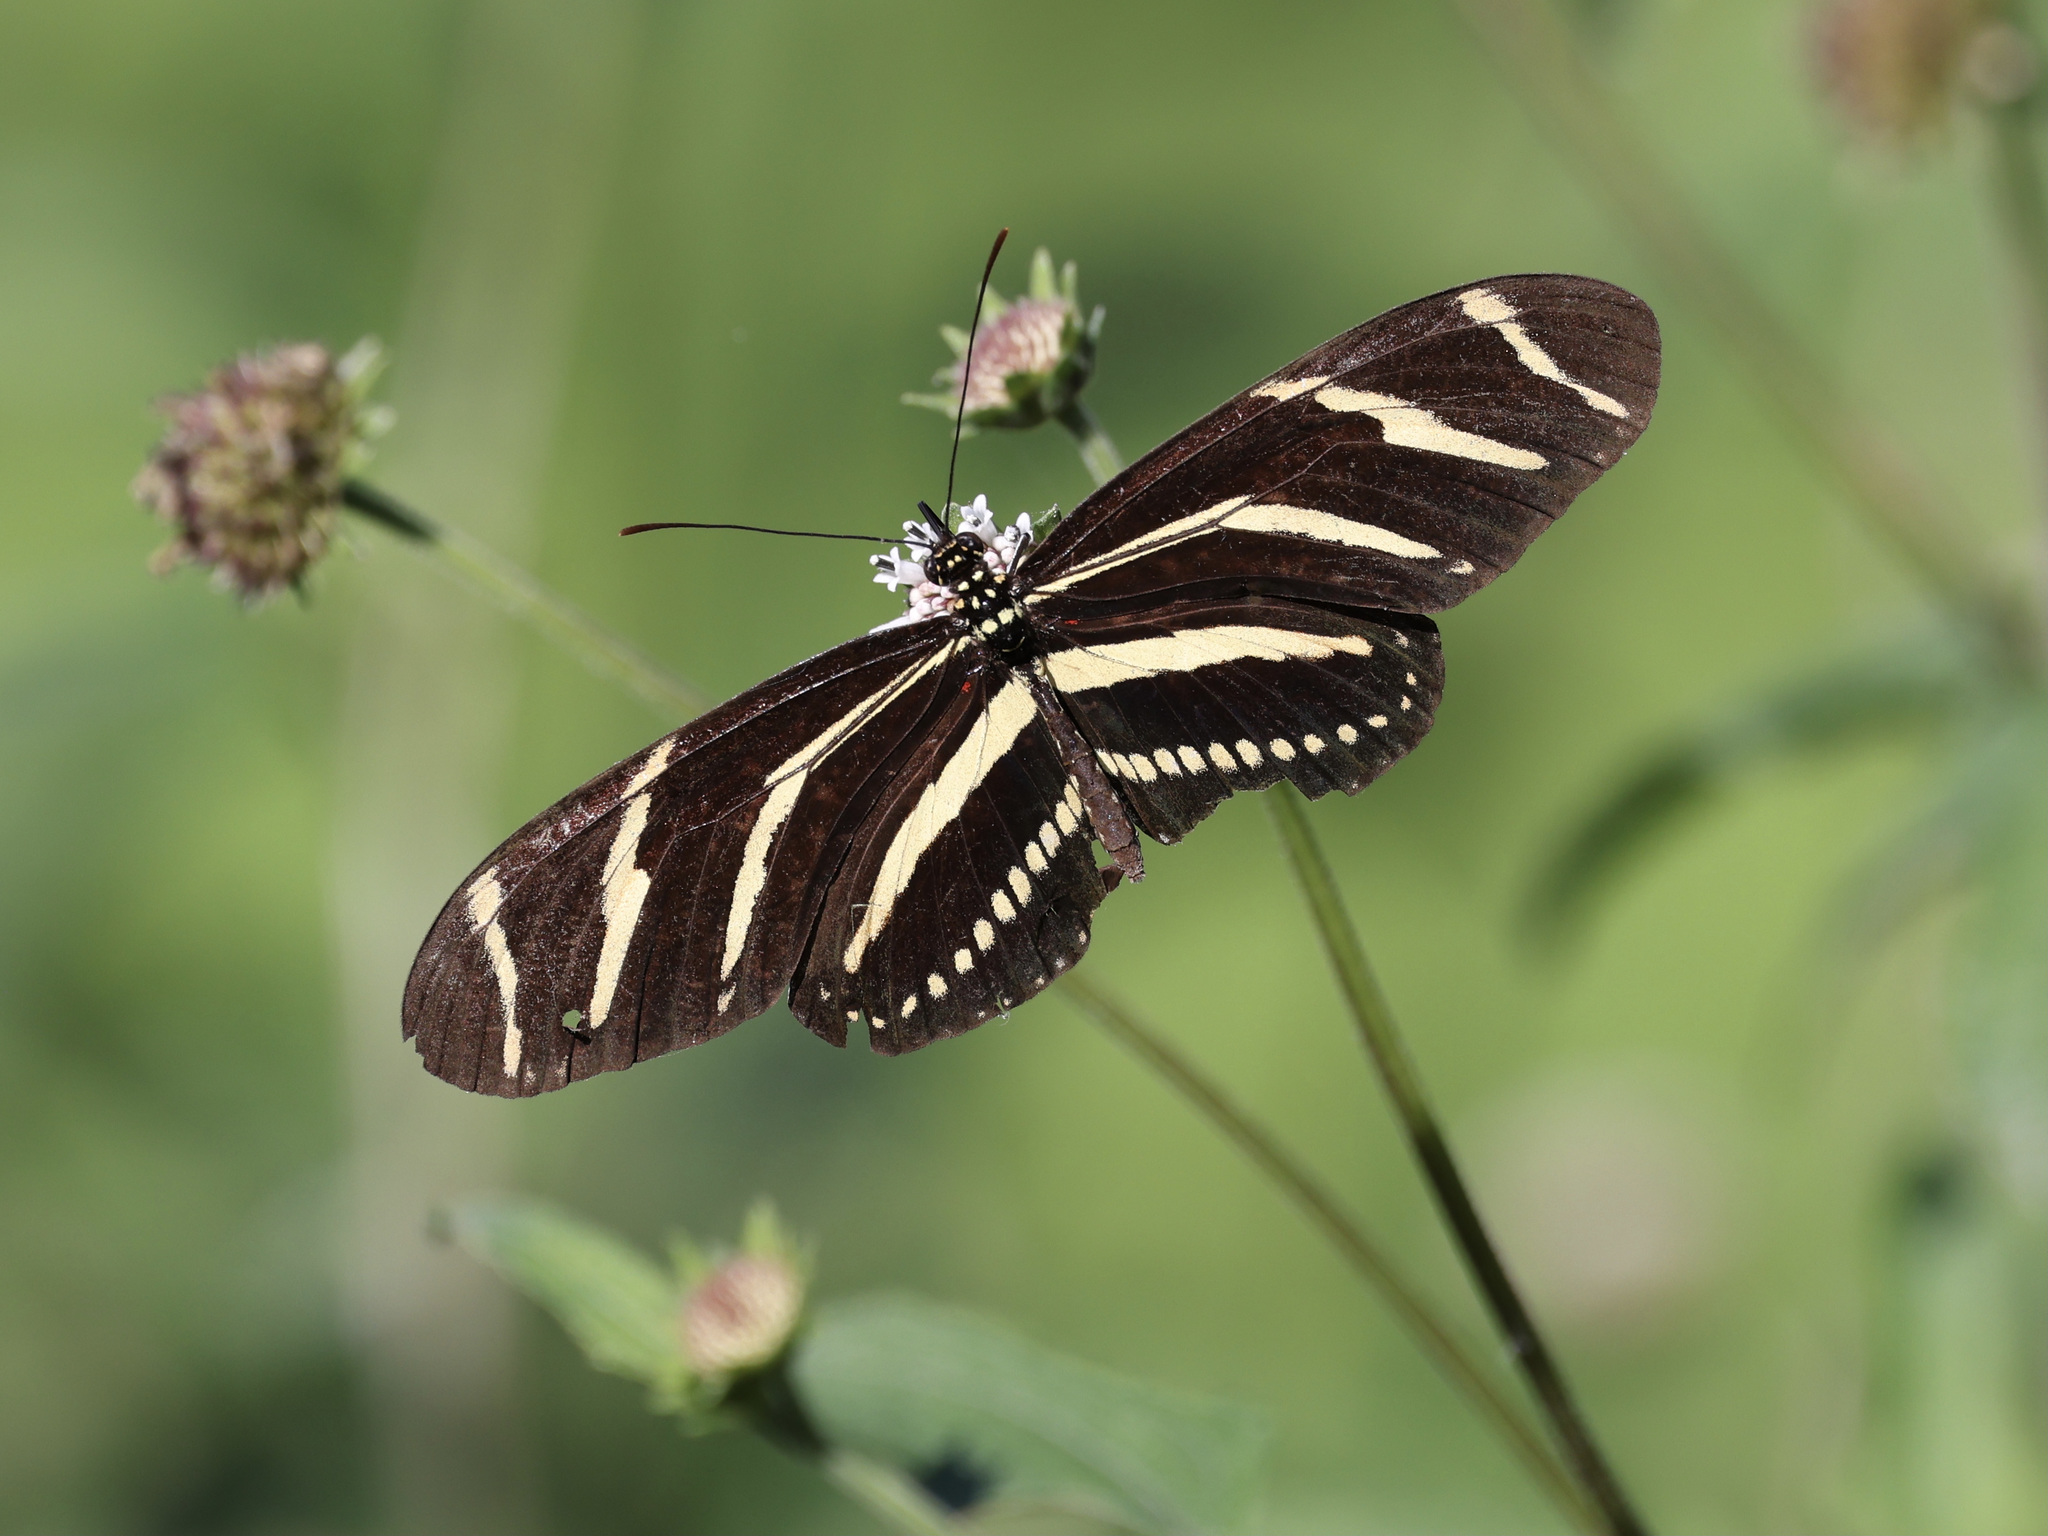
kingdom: Animalia
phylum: Arthropoda
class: Insecta
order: Lepidoptera
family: Nymphalidae
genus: Heliconius
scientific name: Heliconius charithonia
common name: Zebra long wing
